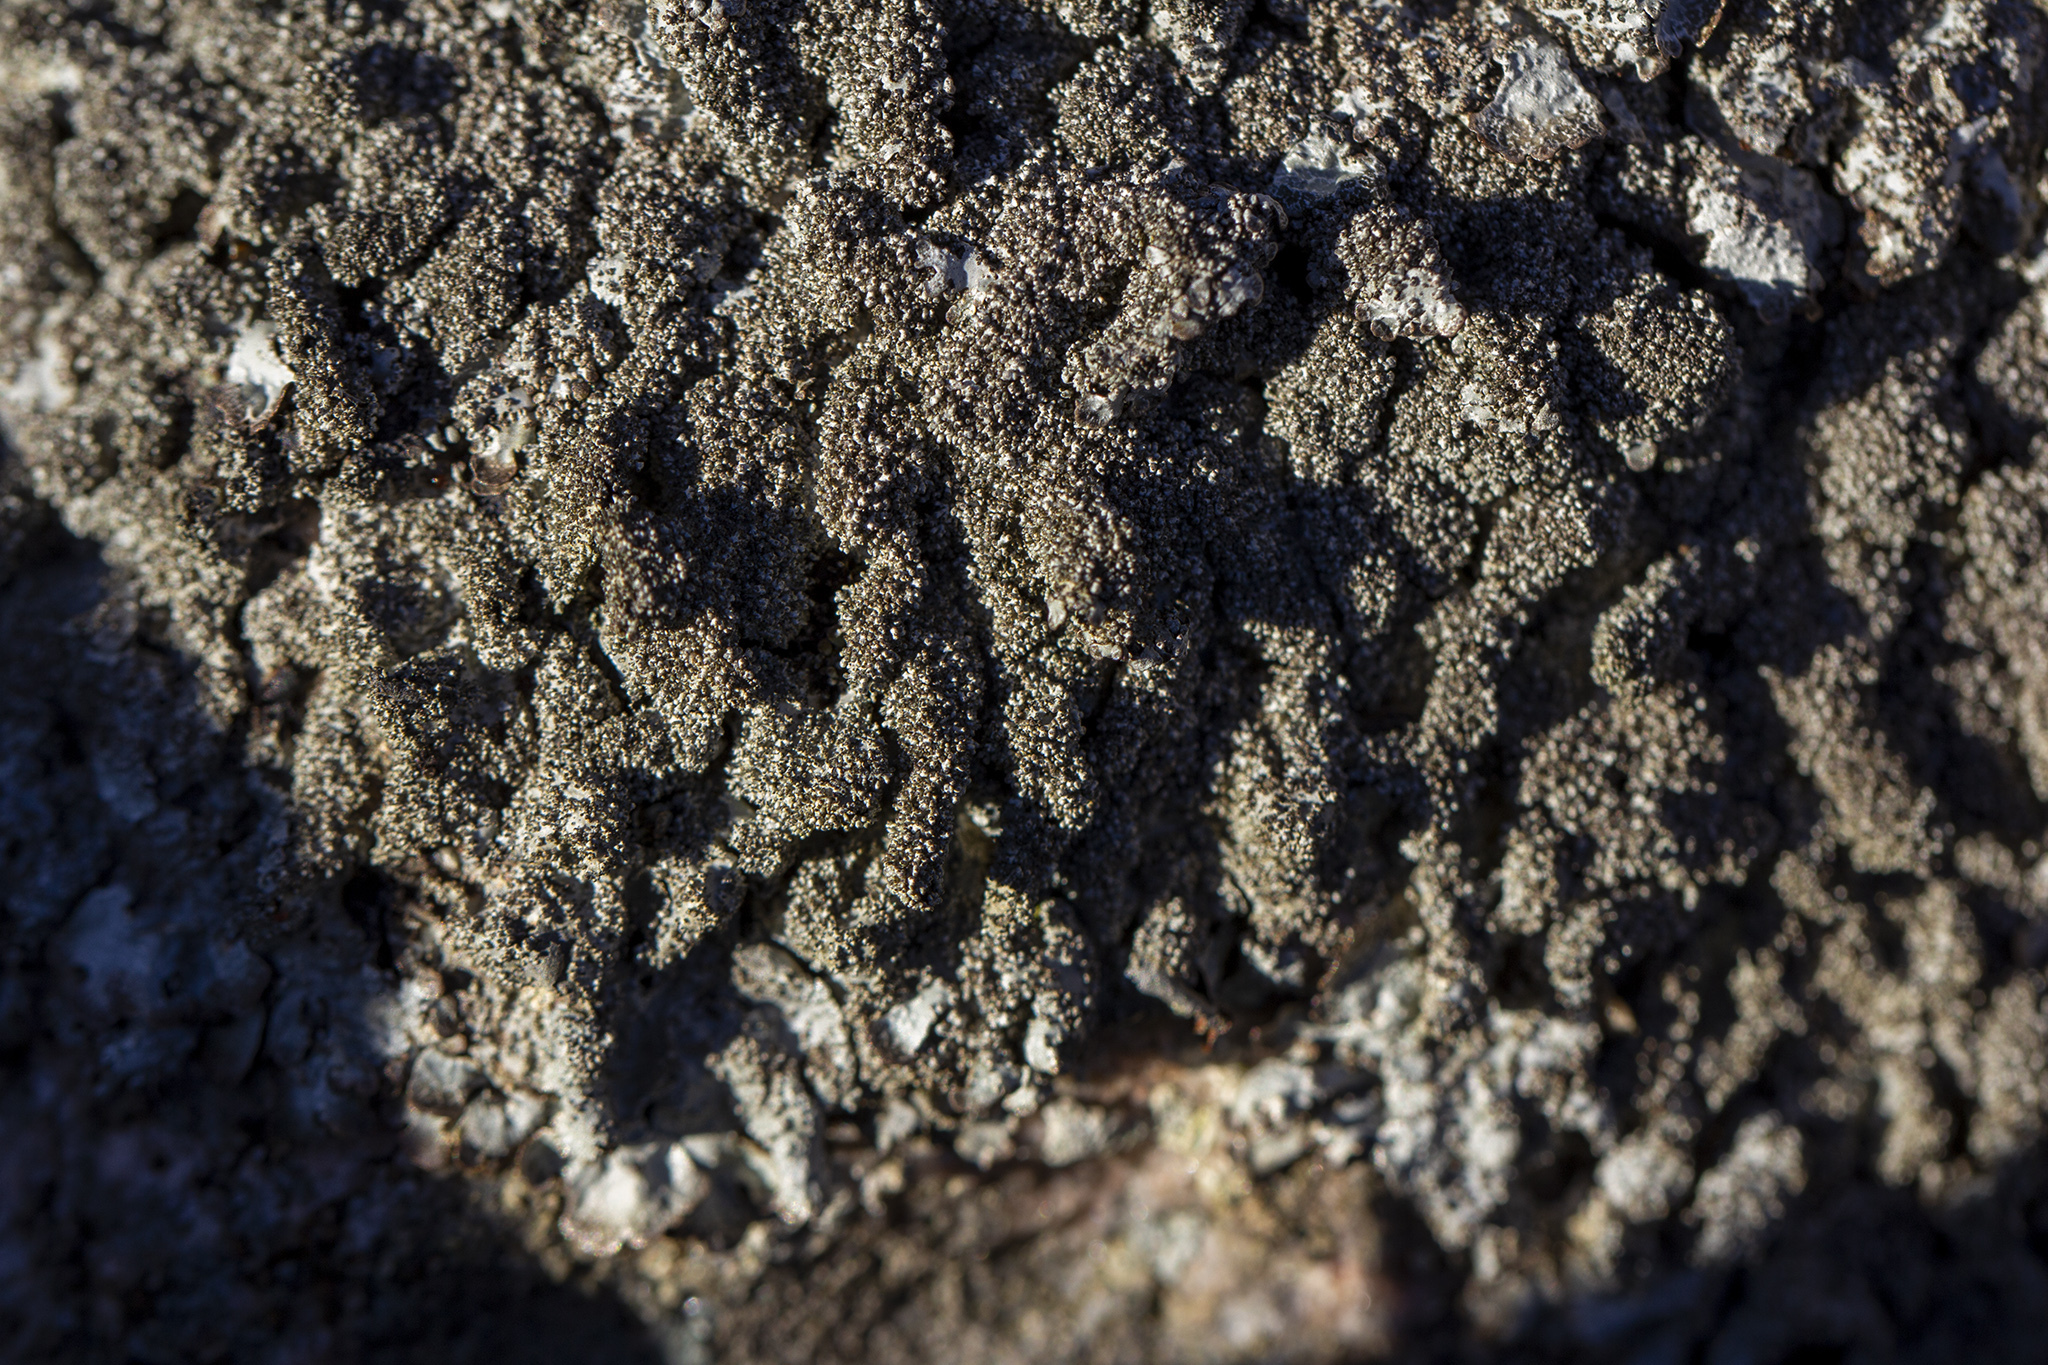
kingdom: Fungi
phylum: Ascomycota
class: Lecanoromycetes
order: Lecanorales
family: Parmeliaceae
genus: Parmelia
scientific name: Parmelia saxatilis
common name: Salted shield lichen
